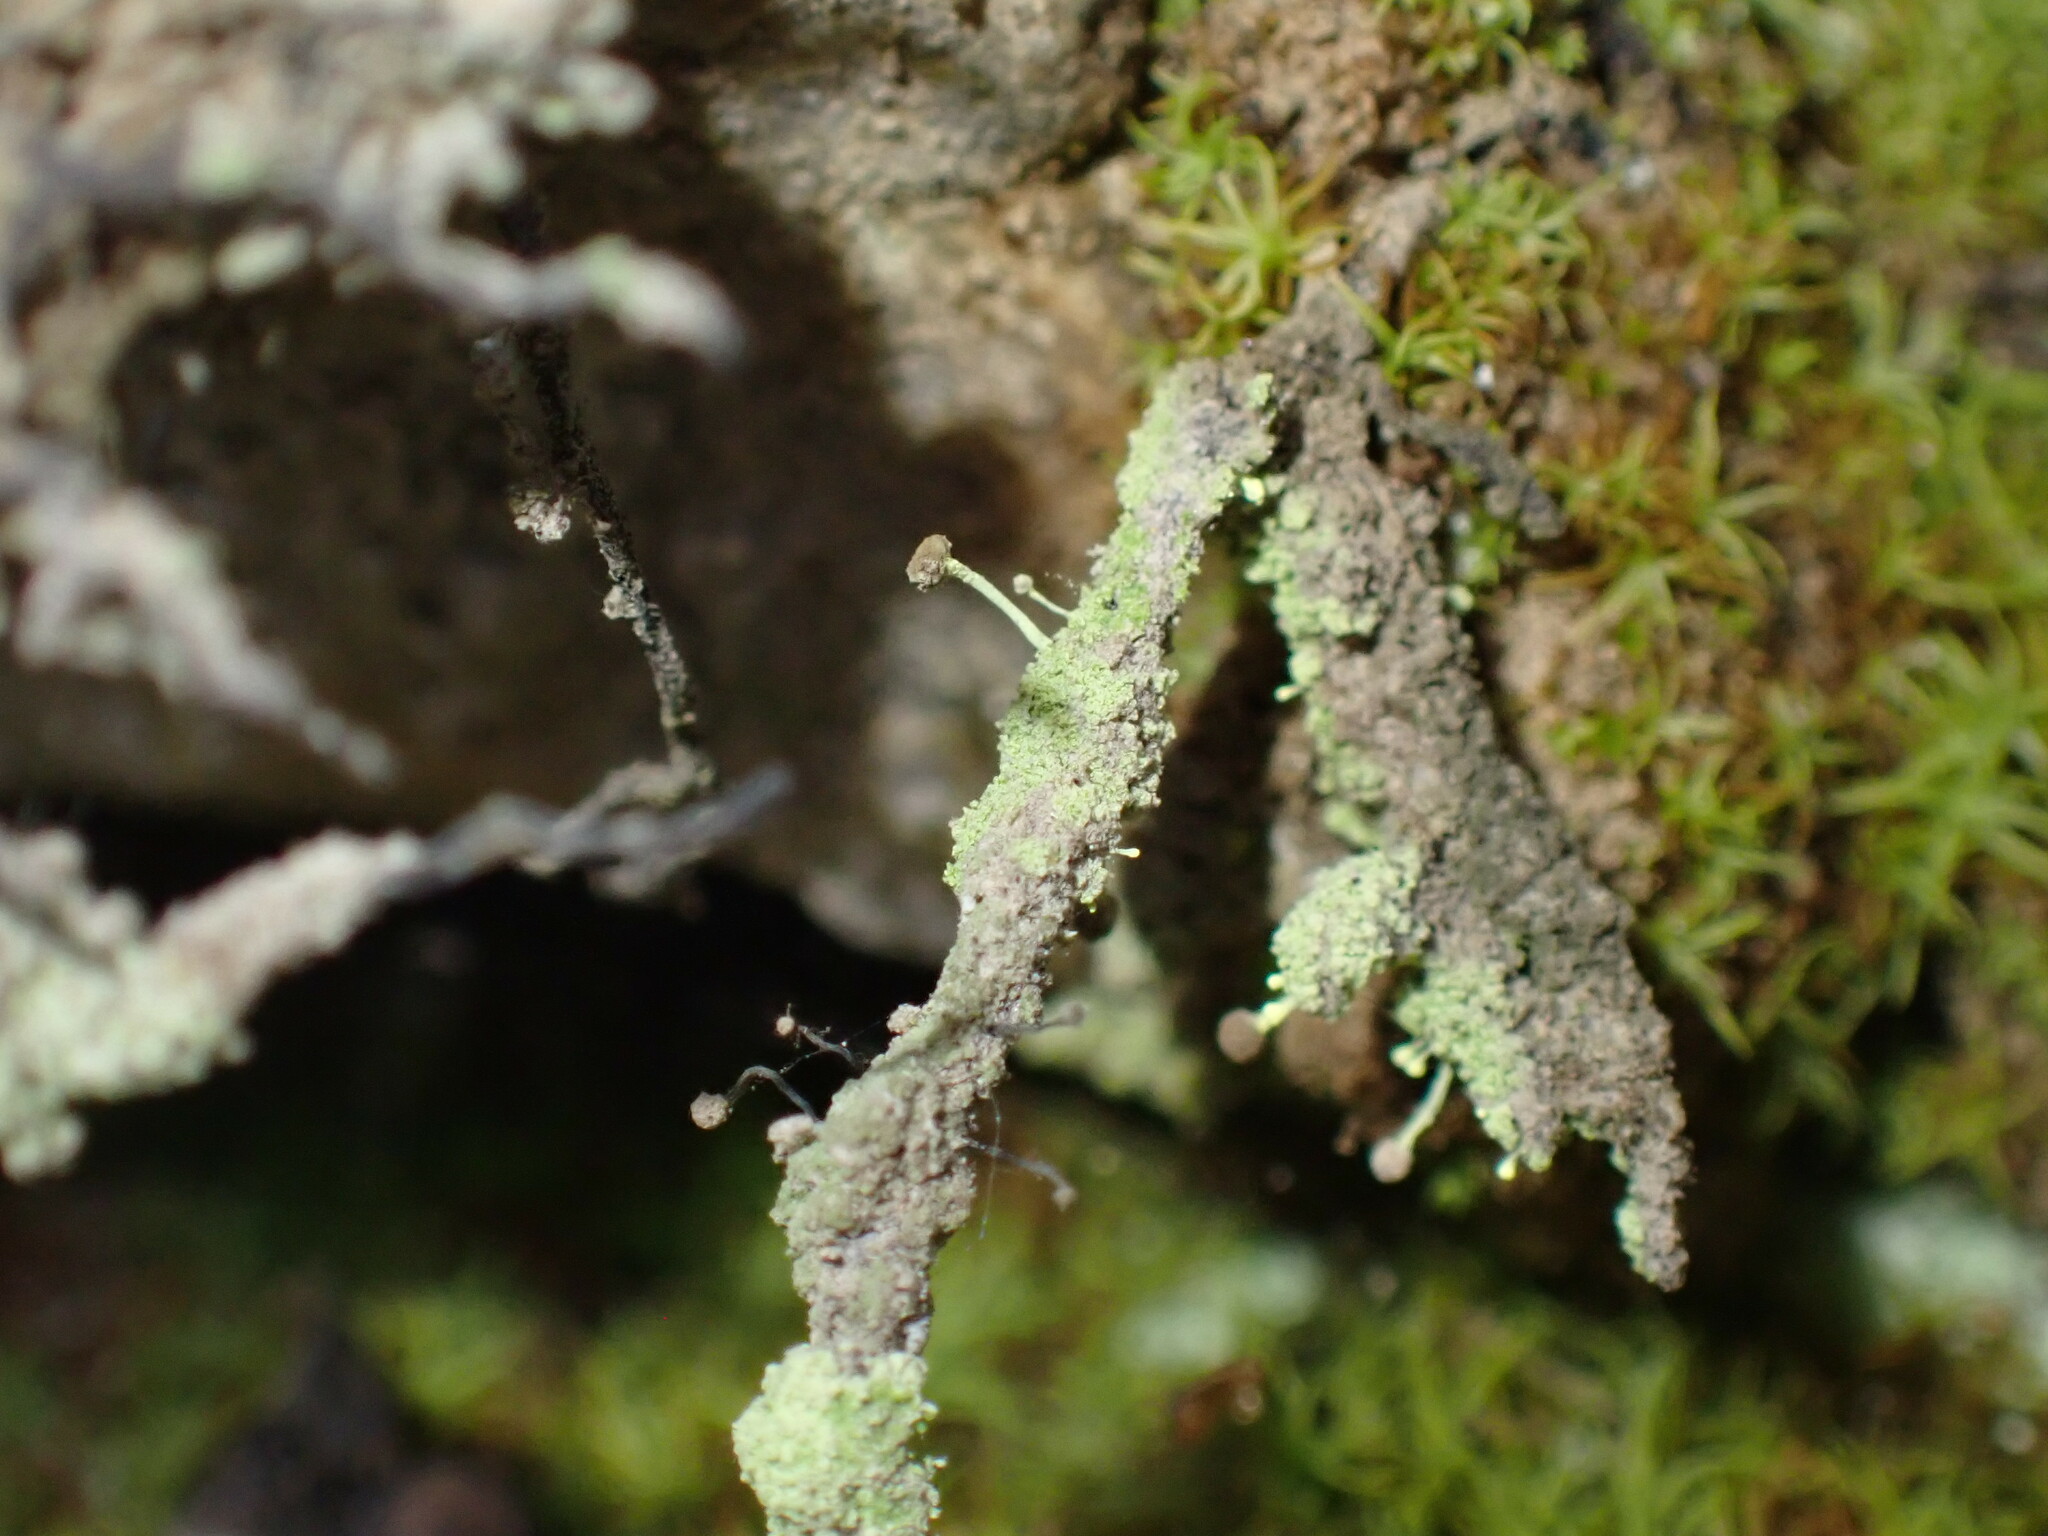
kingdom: Fungi
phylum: Ascomycota
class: Coniocybomycetes
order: Coniocybales
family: Coniocybaceae
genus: Chaenotheca
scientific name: Chaenotheca furfuracea
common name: Sulphur stubble lichen
